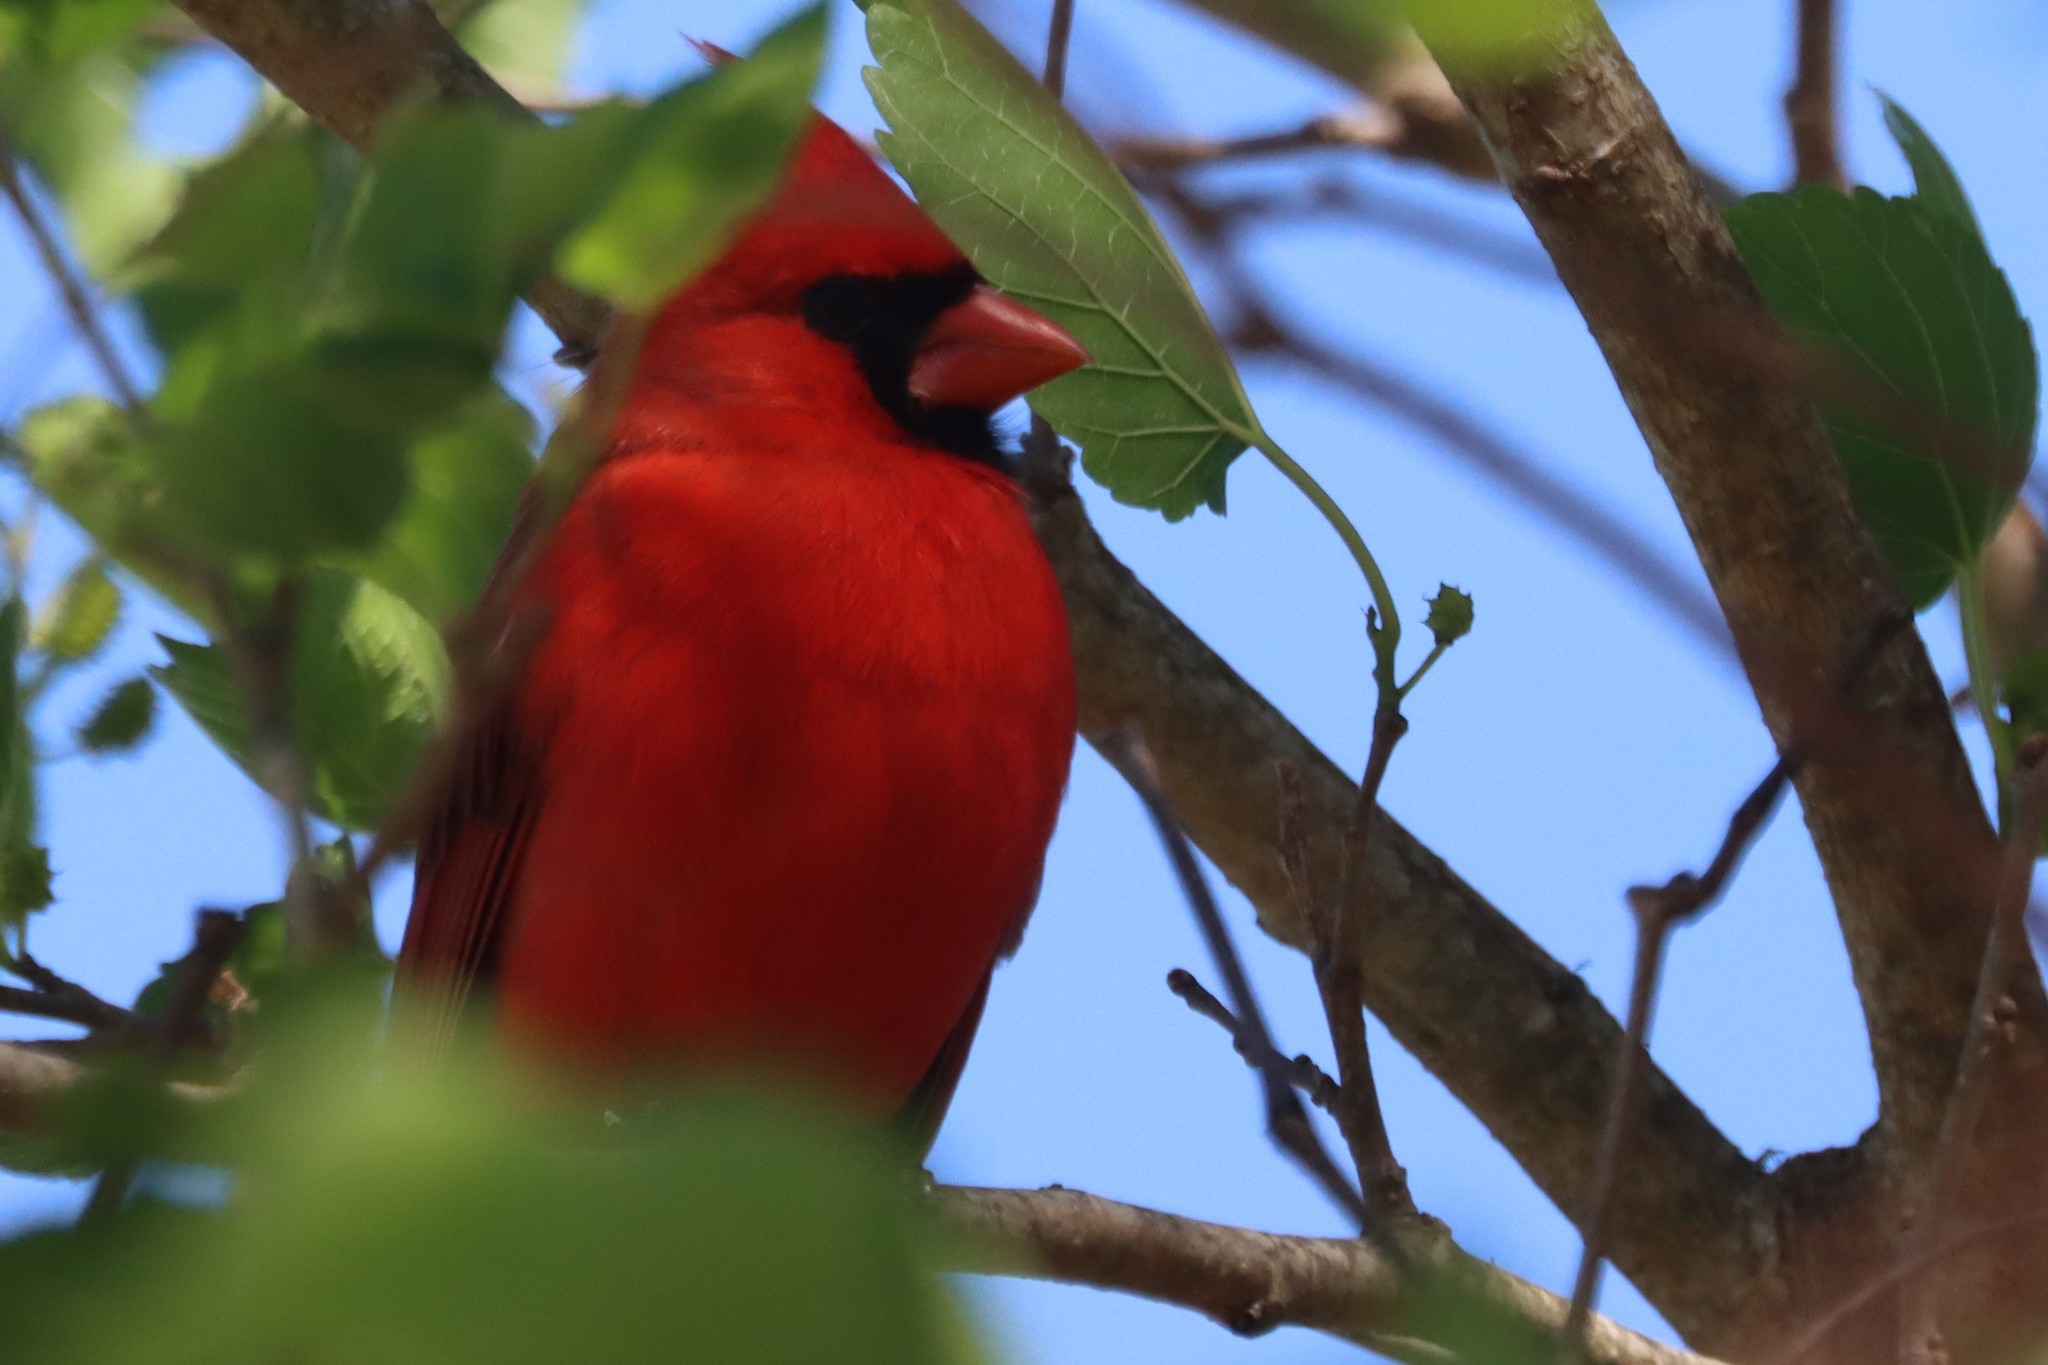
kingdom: Animalia
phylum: Chordata
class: Aves
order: Passeriformes
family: Cardinalidae
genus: Cardinalis
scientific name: Cardinalis cardinalis
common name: Northern cardinal
